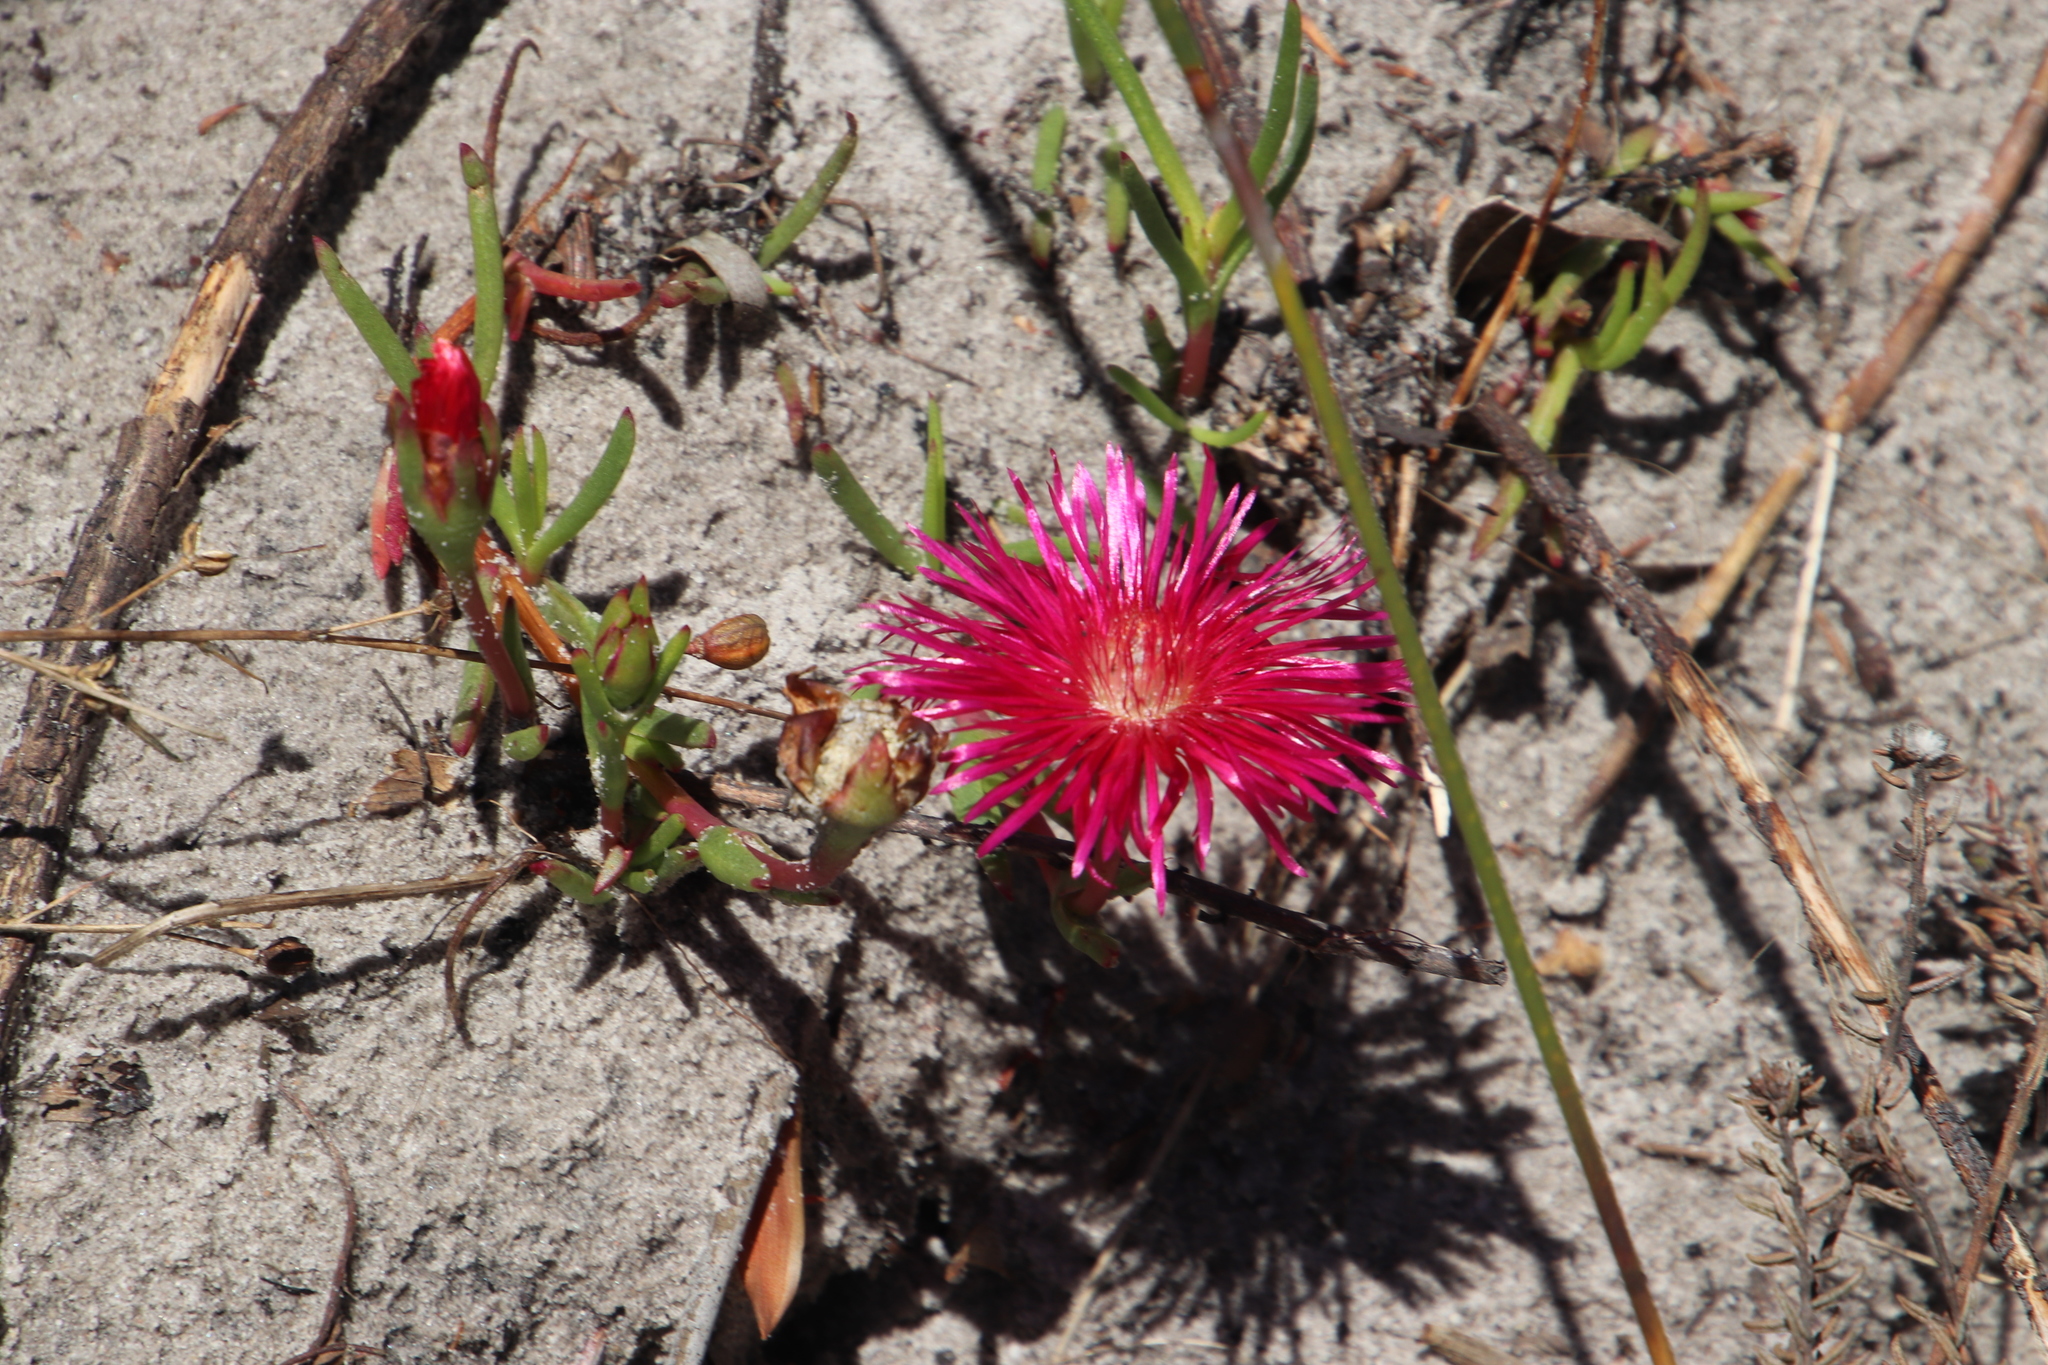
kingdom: Plantae
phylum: Tracheophyta
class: Magnoliopsida
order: Caryophyllales
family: Aizoaceae
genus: Lampranthus
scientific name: Lampranthus tenuifolius
